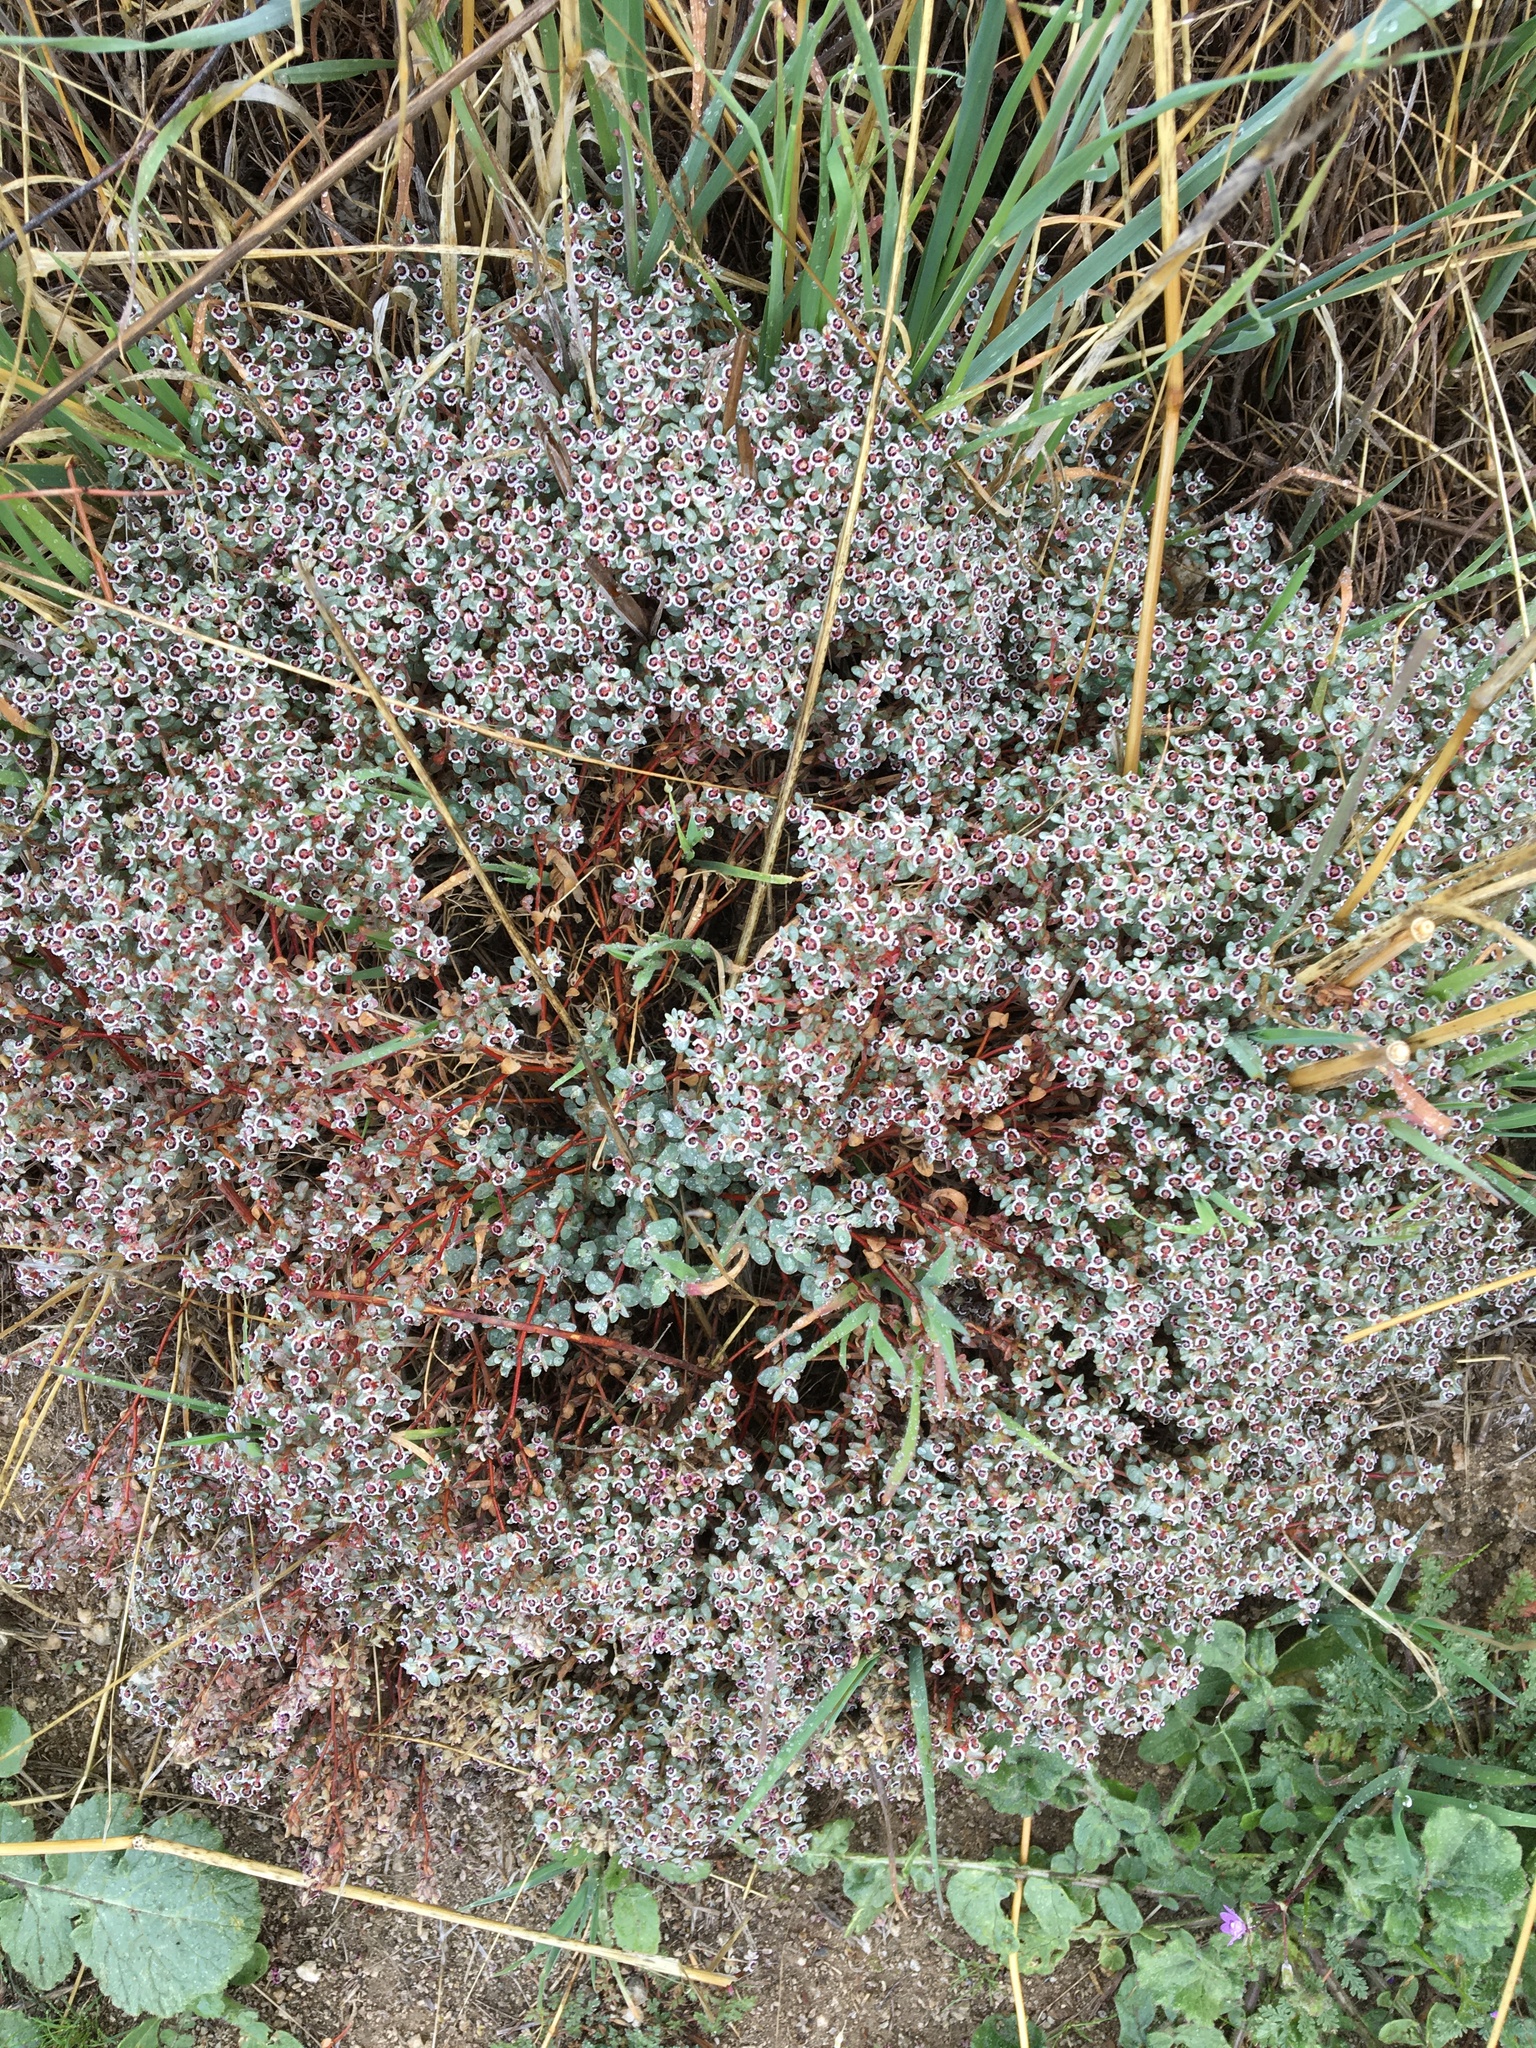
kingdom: Plantae
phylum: Tracheophyta
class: Magnoliopsida
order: Malpighiales
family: Euphorbiaceae
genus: Euphorbia
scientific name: Euphorbia melanadenia
